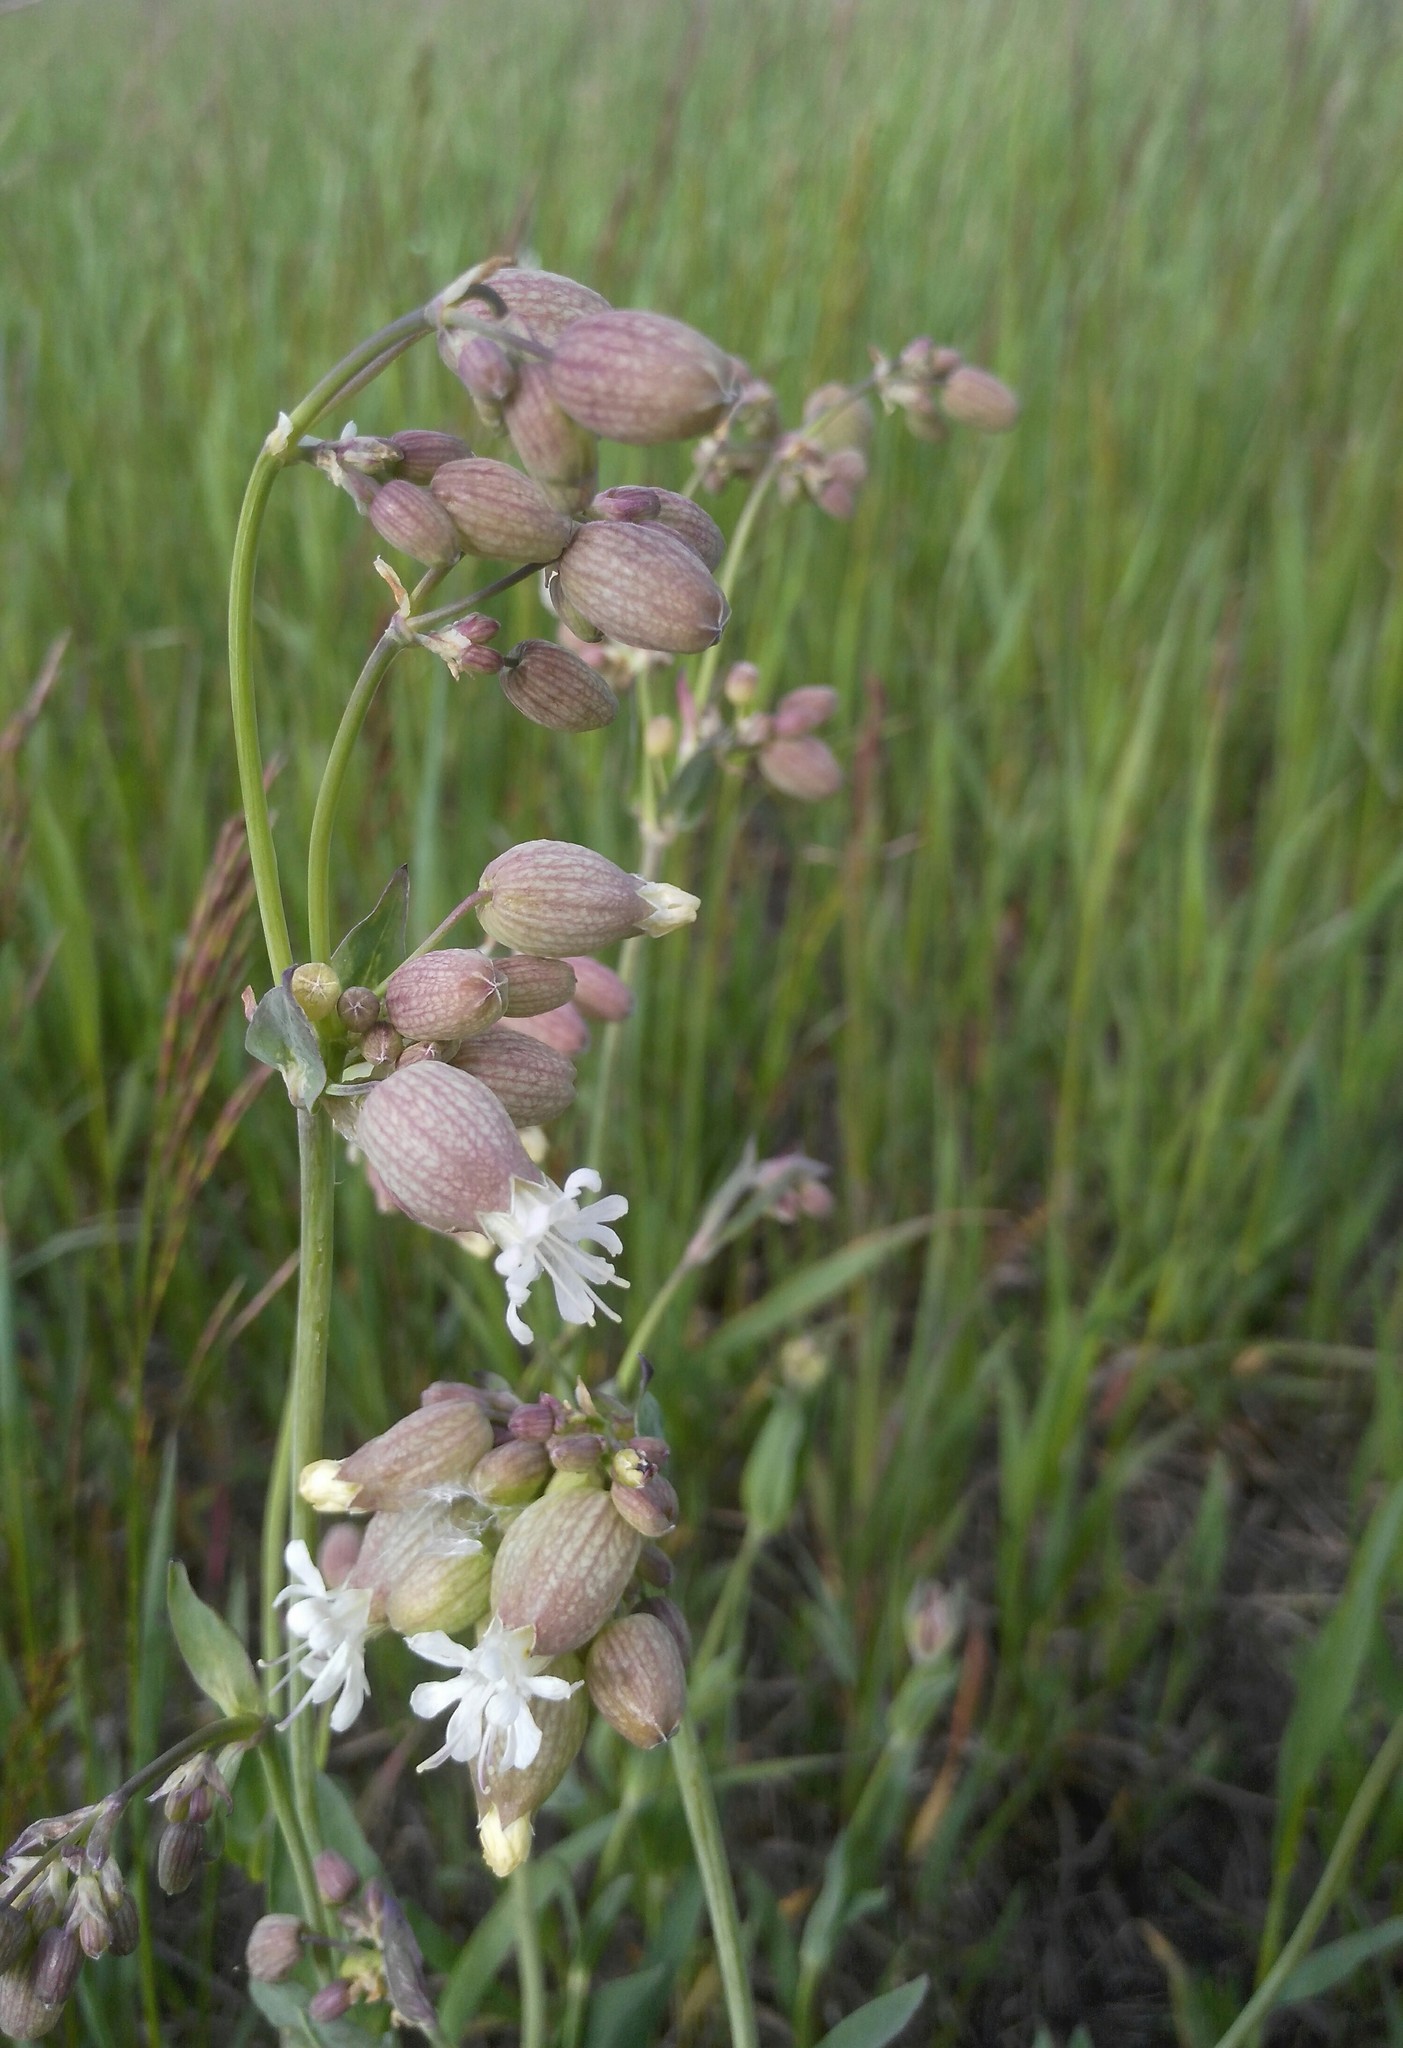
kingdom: Plantae
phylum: Tracheophyta
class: Magnoliopsida
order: Caryophyllales
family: Caryophyllaceae
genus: Silene
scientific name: Silene vulgaris
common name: Bladder campion
